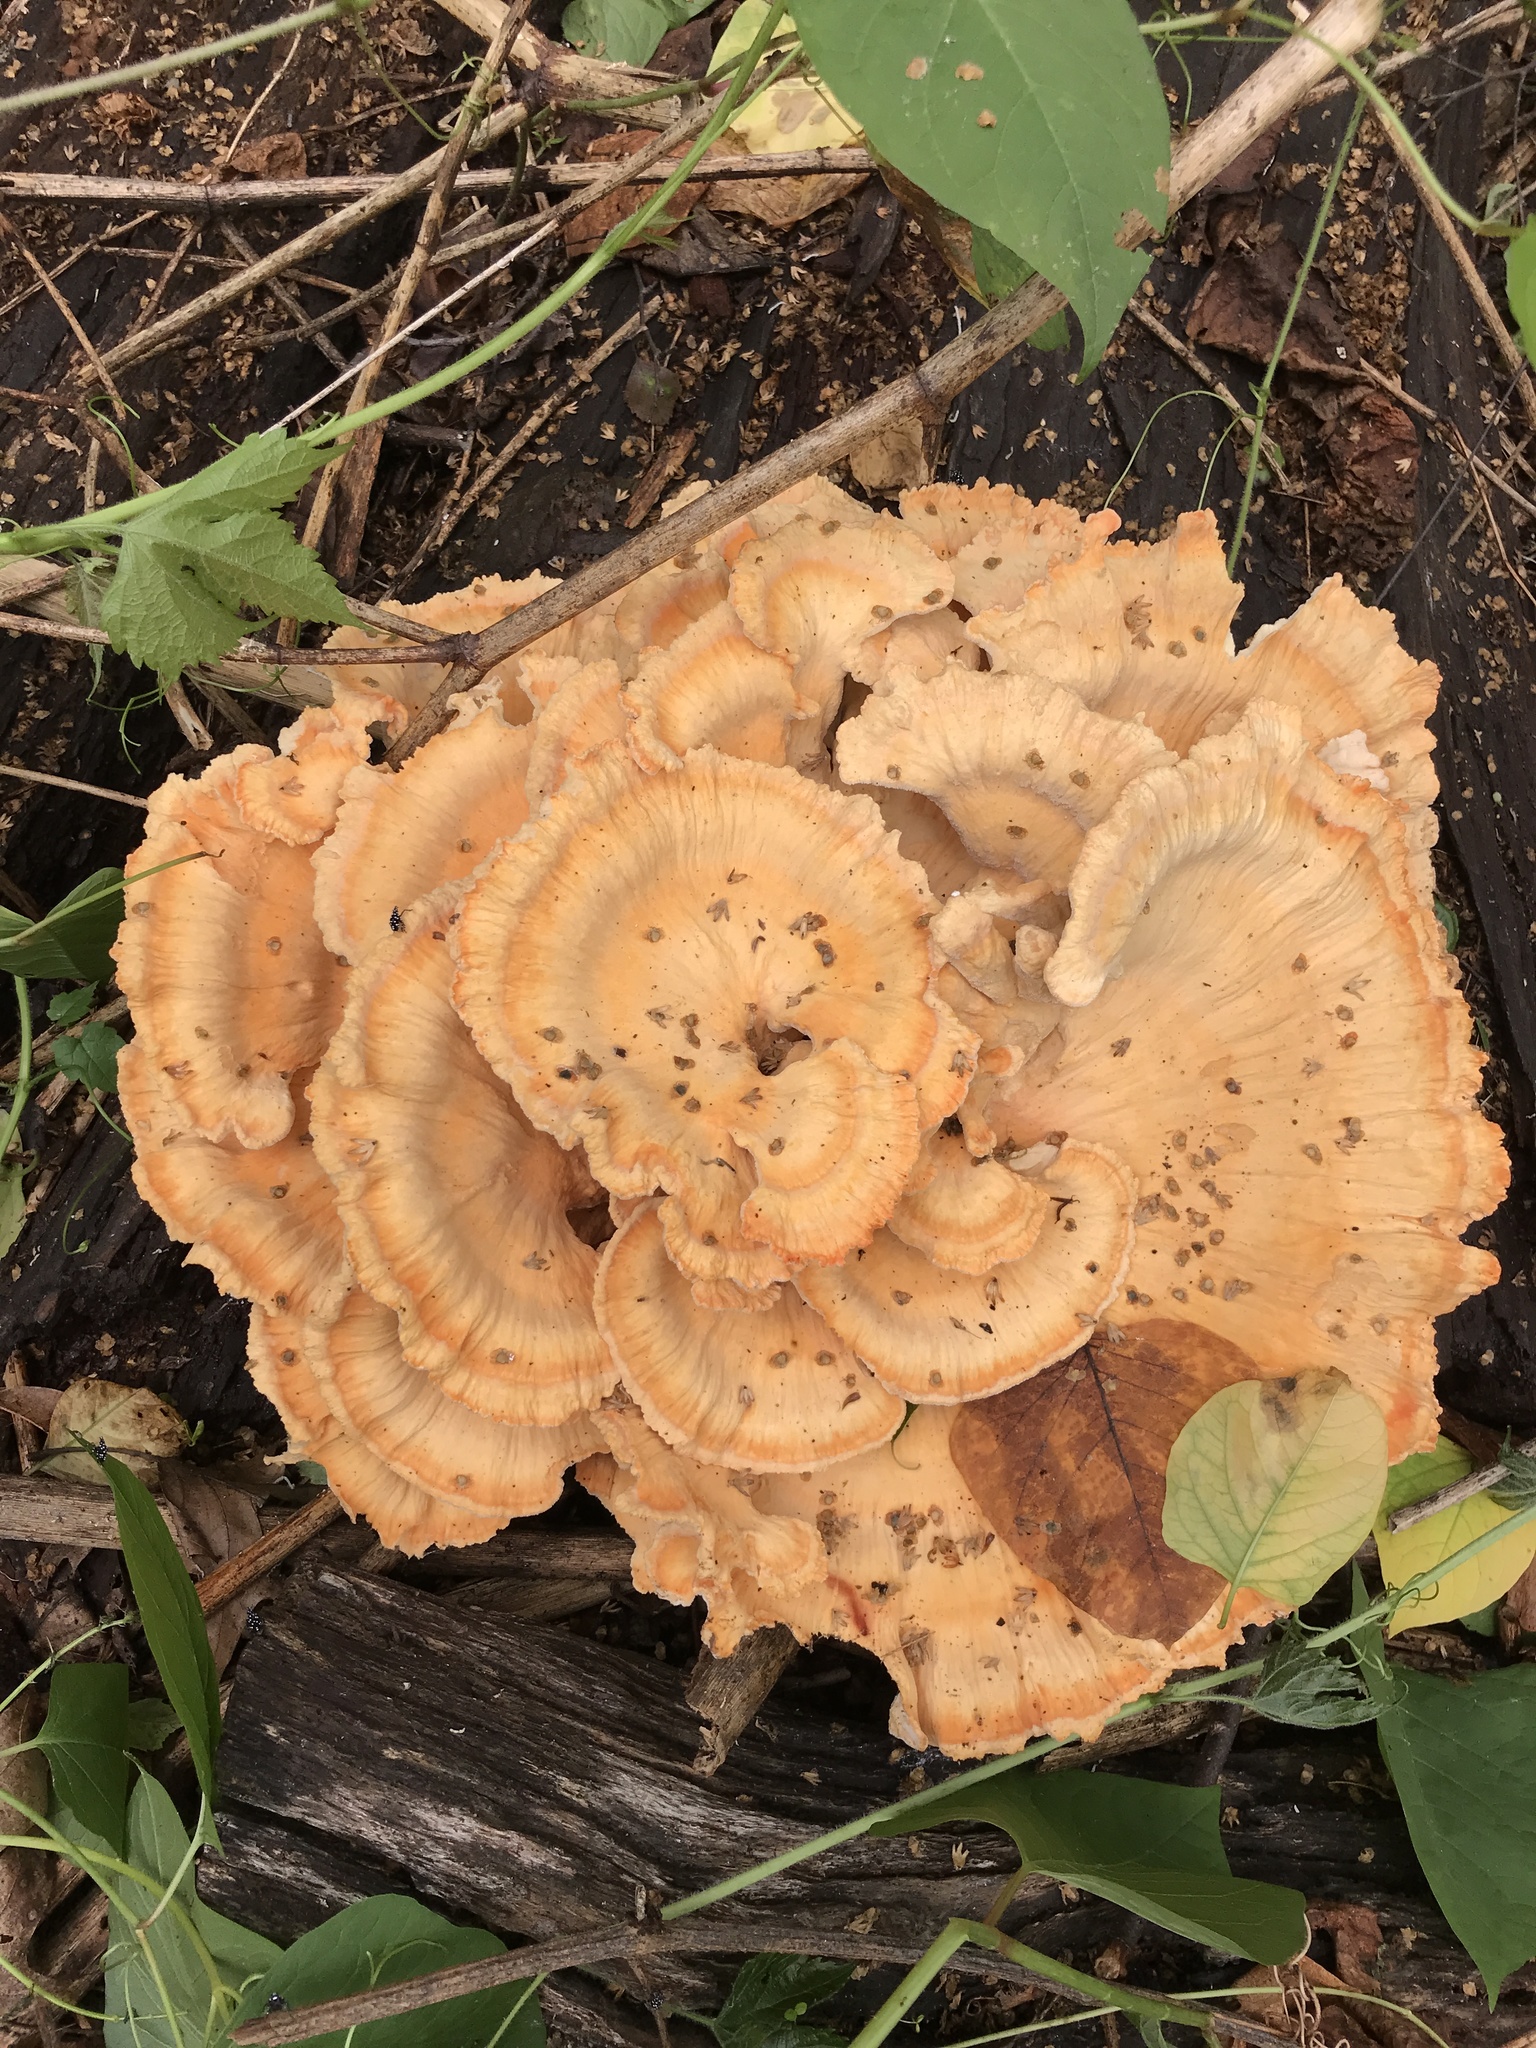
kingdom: Fungi
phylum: Basidiomycota
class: Agaricomycetes
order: Polyporales
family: Laetiporaceae
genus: Laetiporus
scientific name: Laetiporus
